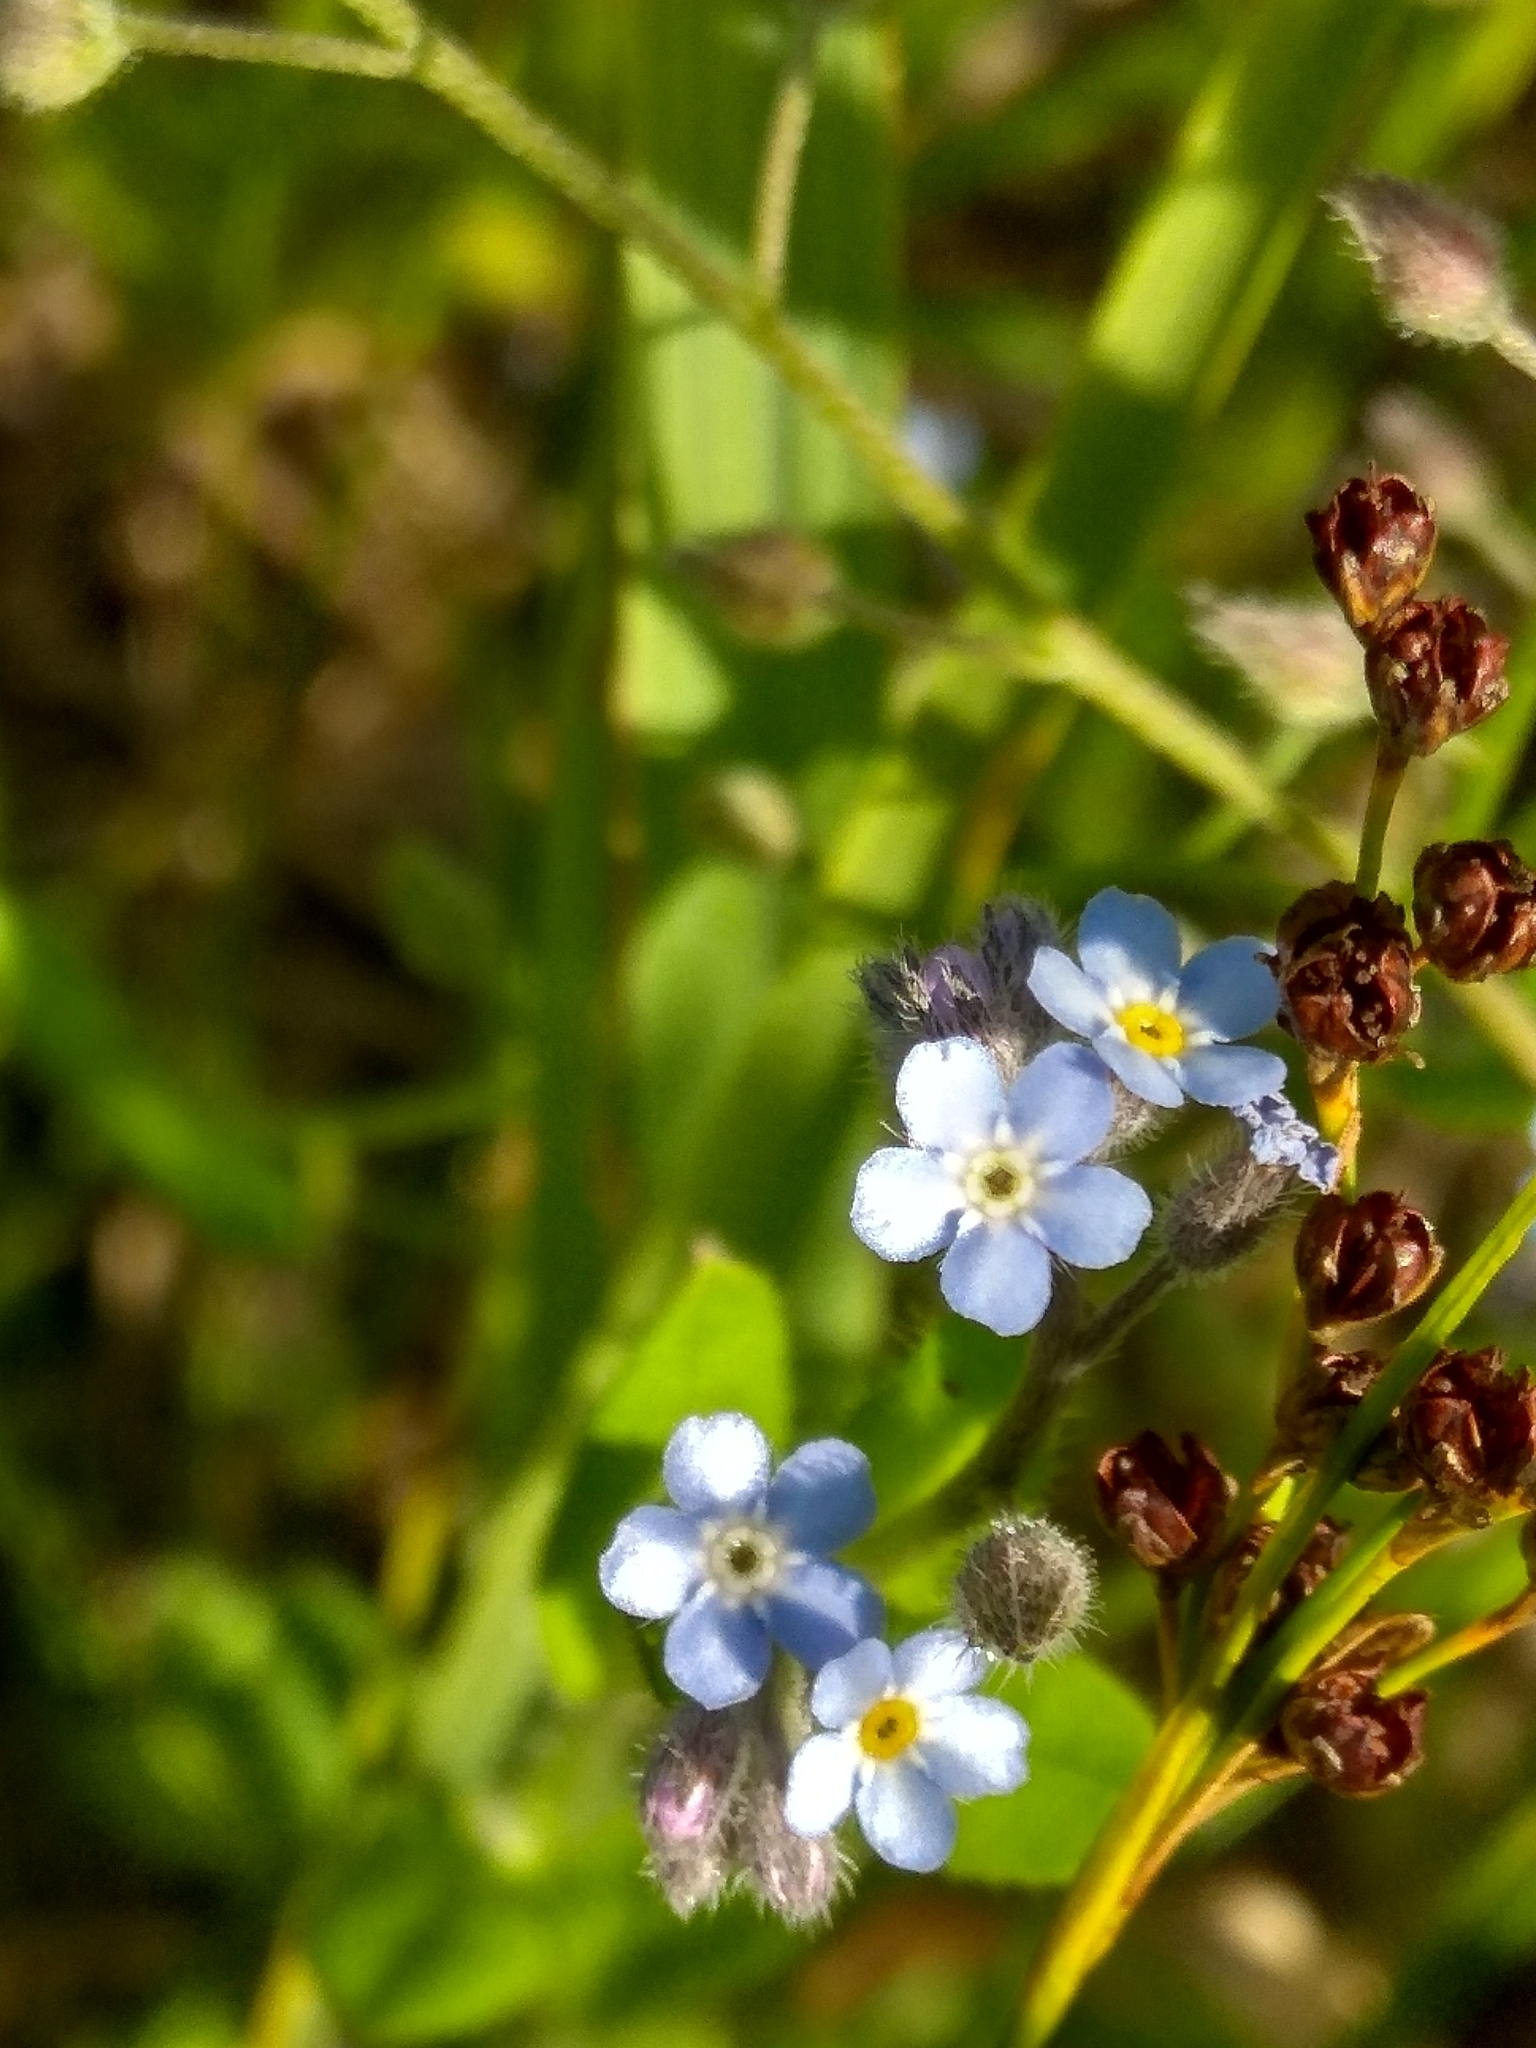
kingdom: Plantae
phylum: Tracheophyta
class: Magnoliopsida
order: Boraginales
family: Boraginaceae
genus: Myosotis
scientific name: Myosotis arvensis
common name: Field forget-me-not
